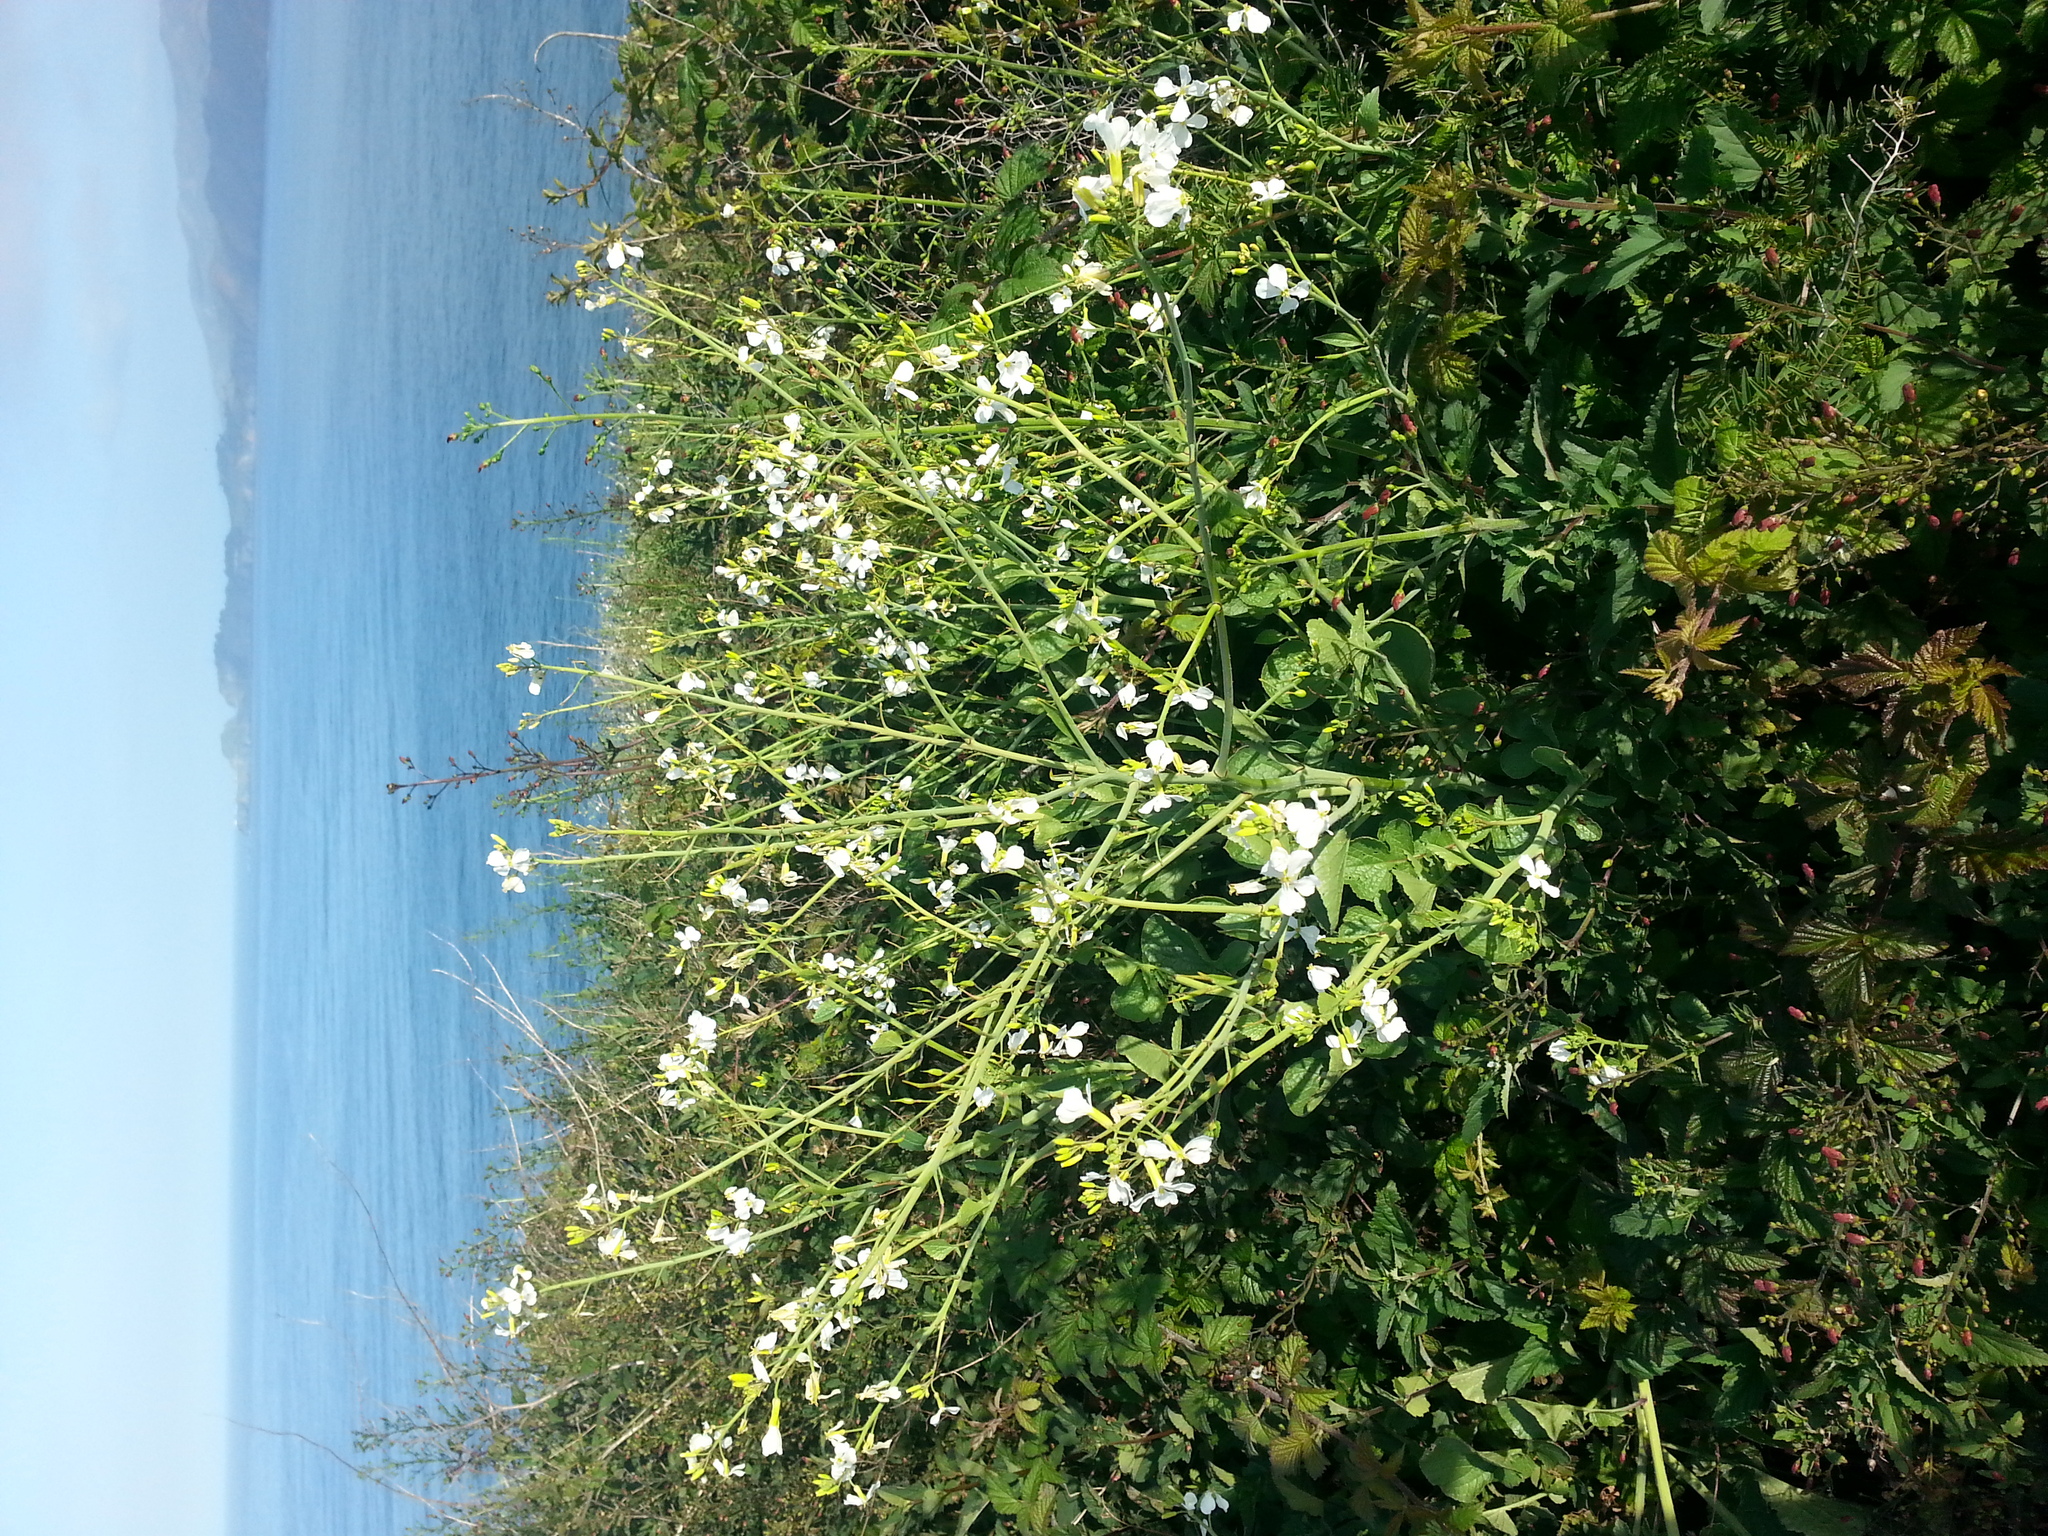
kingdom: Plantae
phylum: Tracheophyta
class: Magnoliopsida
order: Brassicales
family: Brassicaceae
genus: Raphanus
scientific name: Raphanus sativus
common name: Cultivated radish
